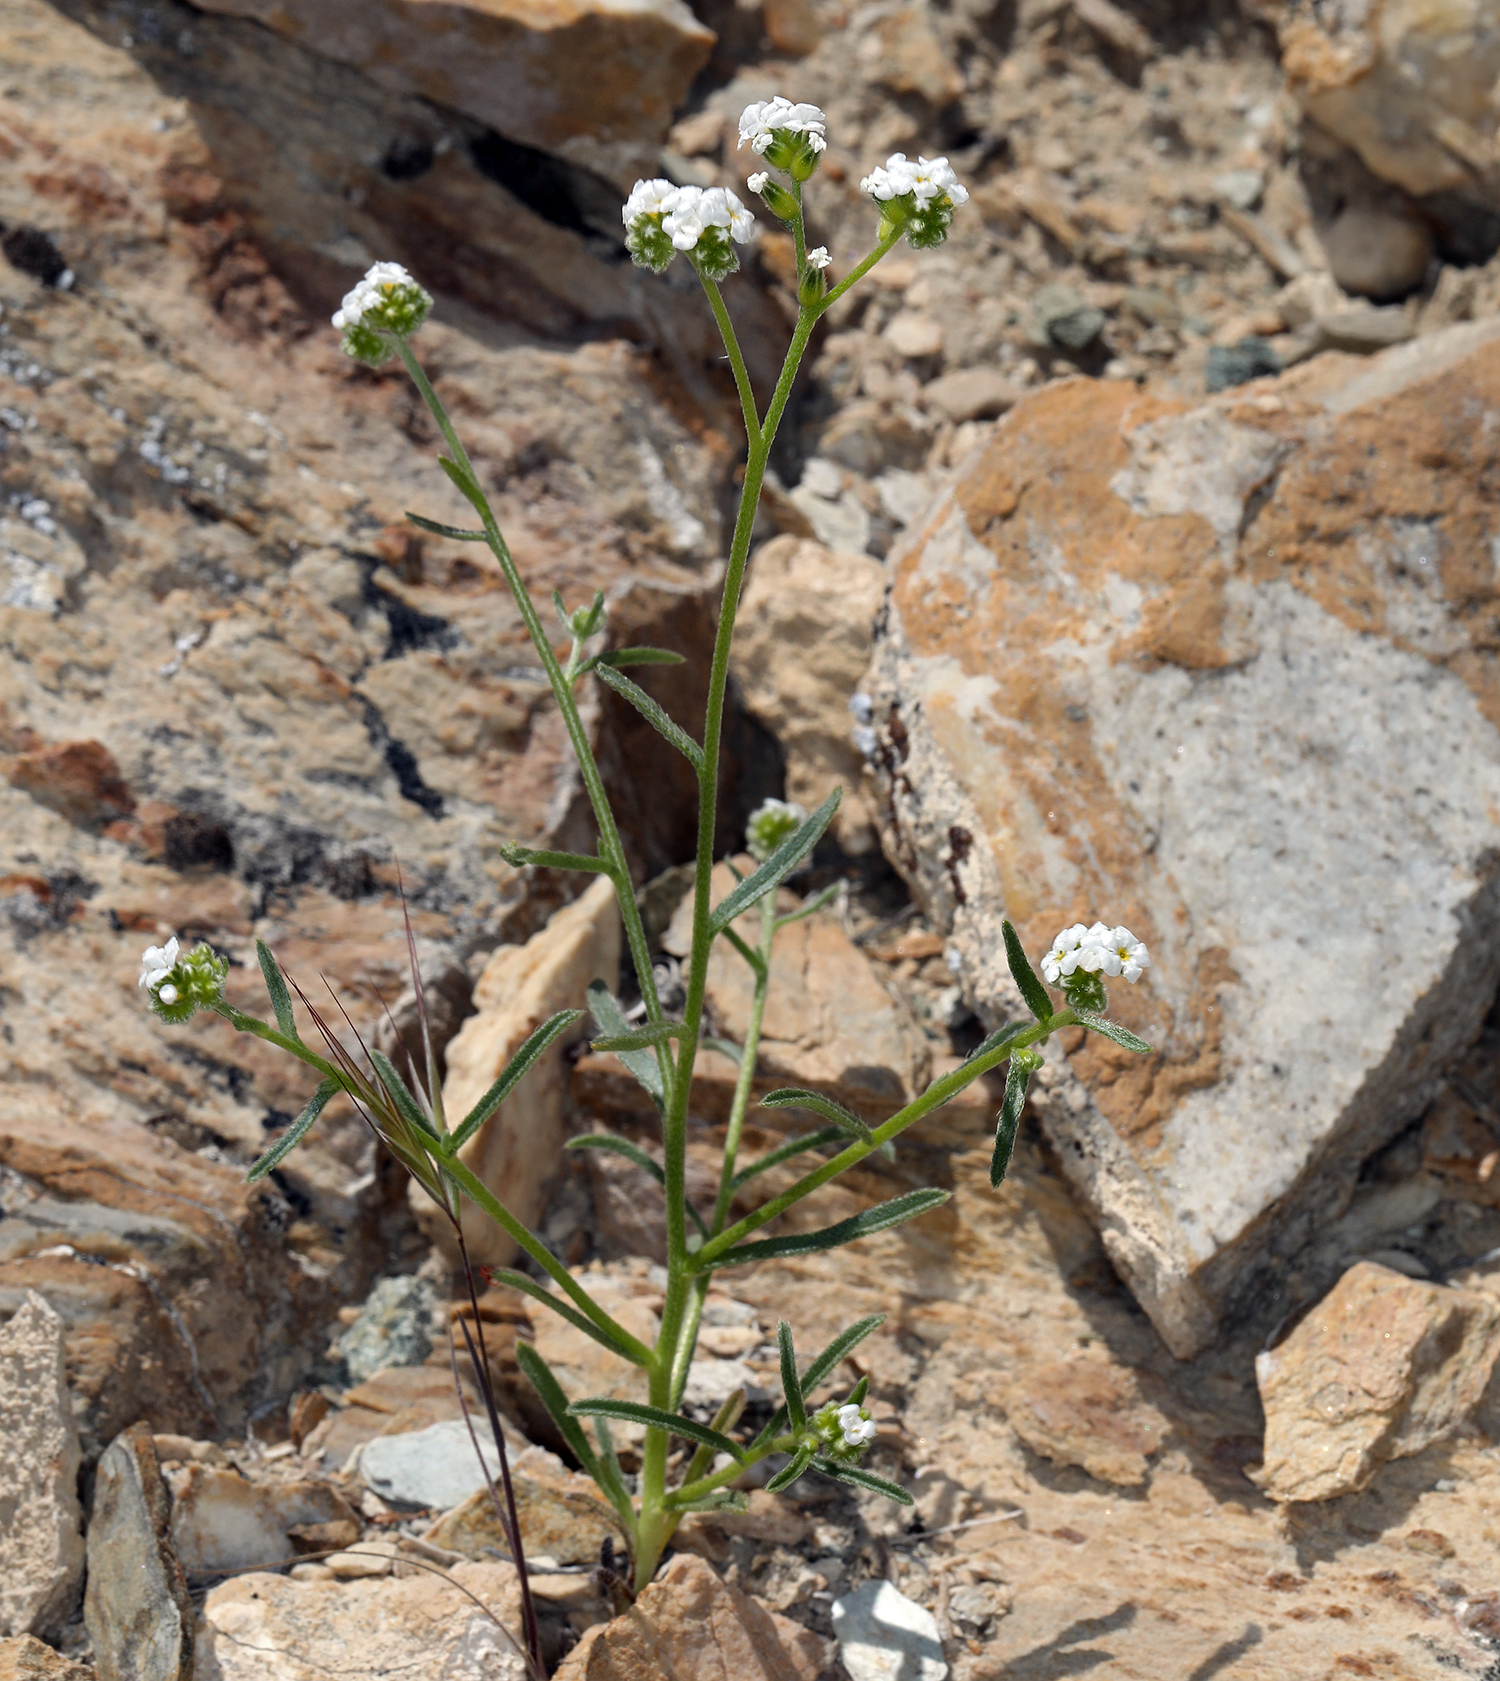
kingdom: Plantae
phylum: Tracheophyta
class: Magnoliopsida
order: Boraginales
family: Boraginaceae
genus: Cryptantha
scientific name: Cryptantha utahensis
